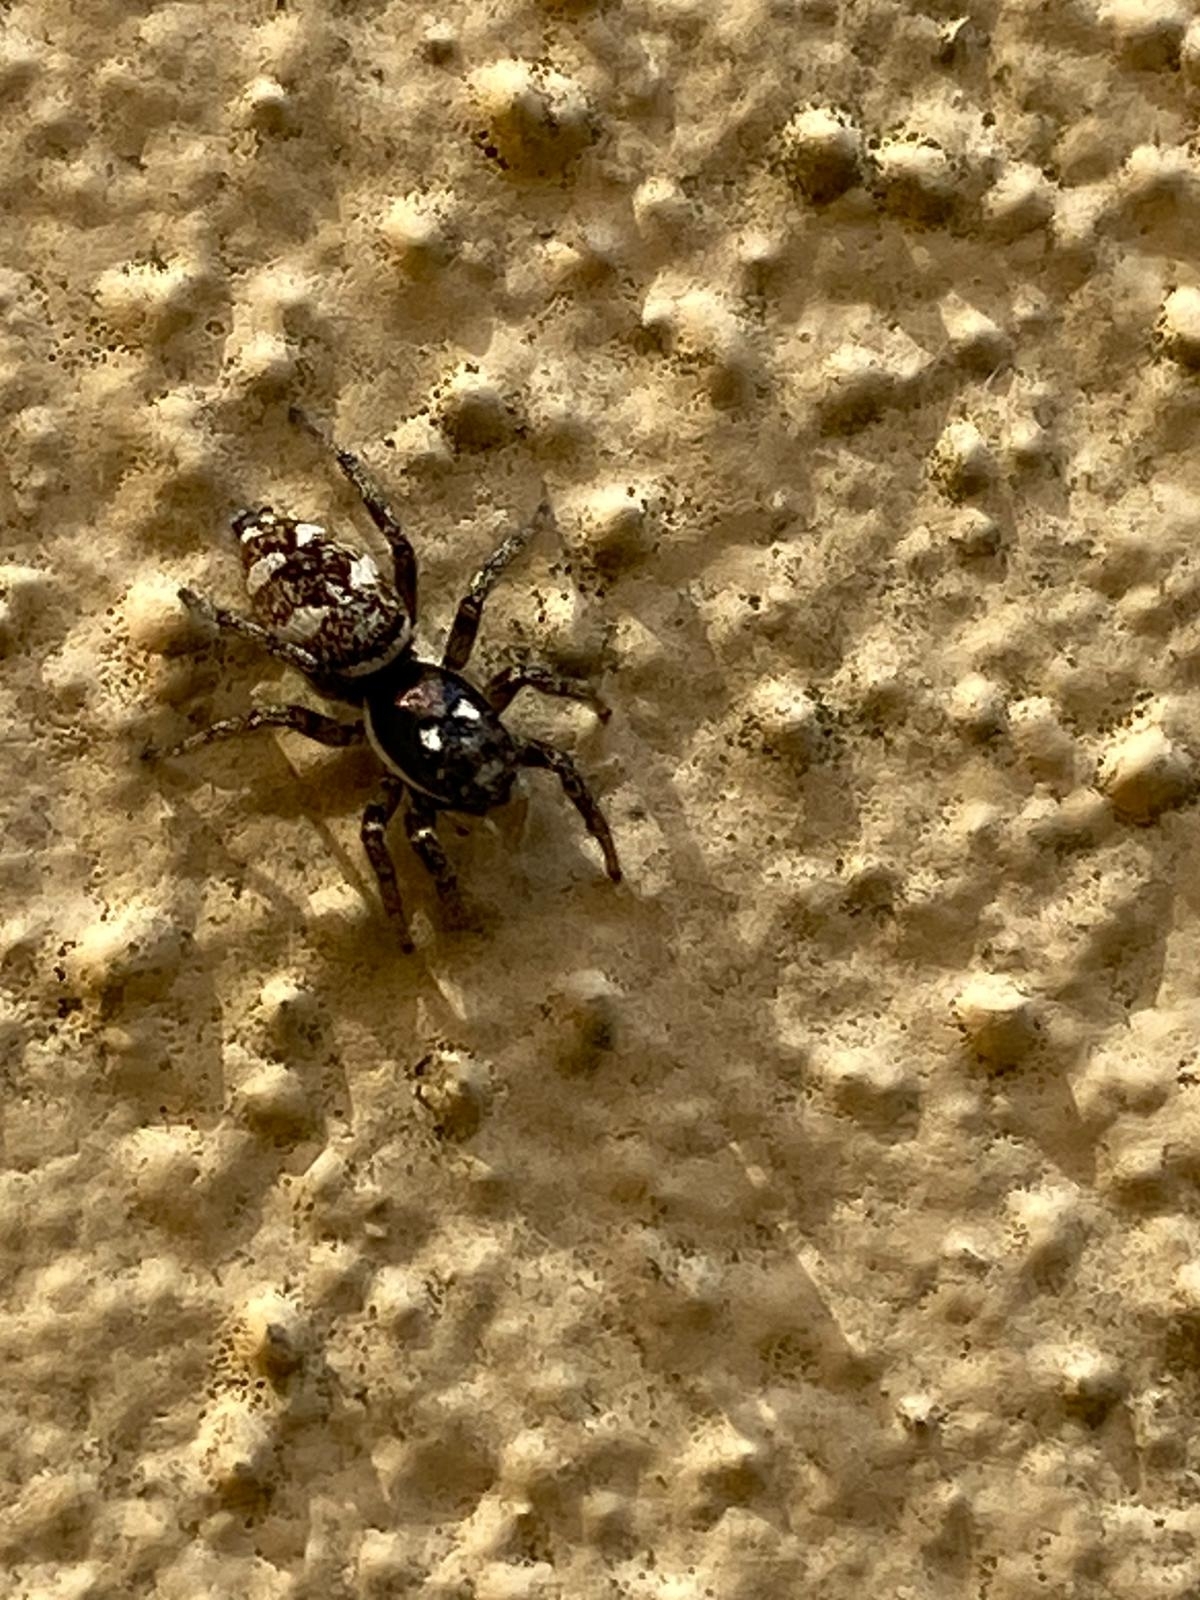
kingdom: Animalia
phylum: Arthropoda
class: Arachnida
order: Araneae
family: Salticidae
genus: Salticus
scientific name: Salticus scenicus
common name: Zebra jumper
